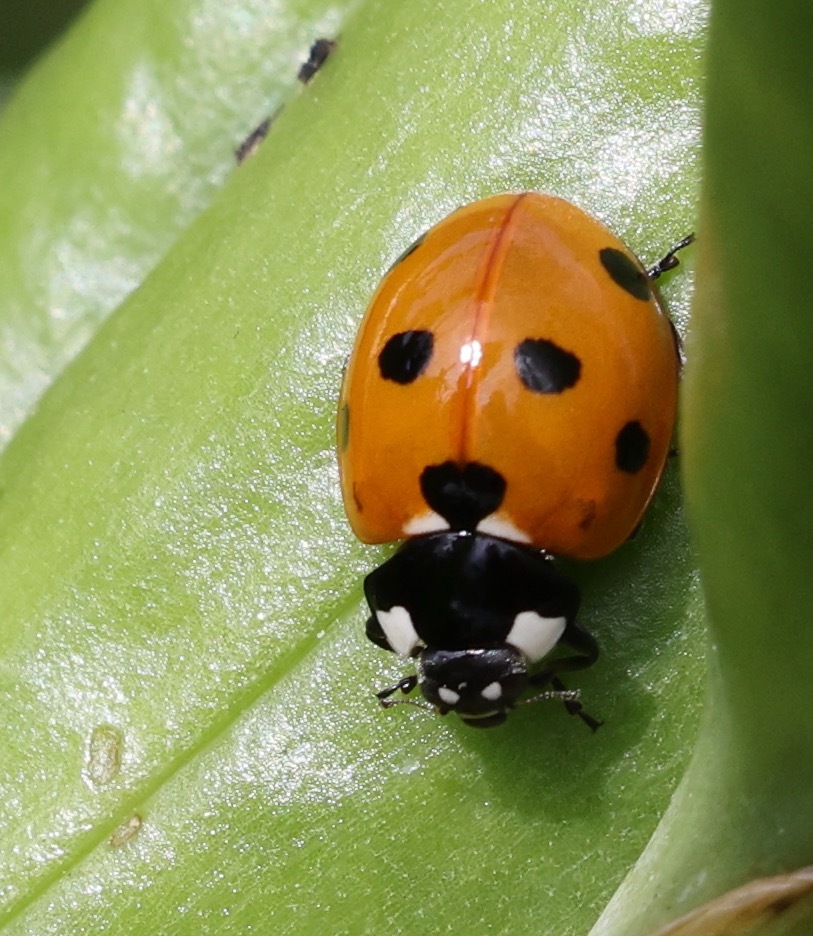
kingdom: Animalia
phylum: Arthropoda
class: Insecta
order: Coleoptera
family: Coccinellidae
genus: Coccinella
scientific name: Coccinella septempunctata
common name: Sevenspotted lady beetle
